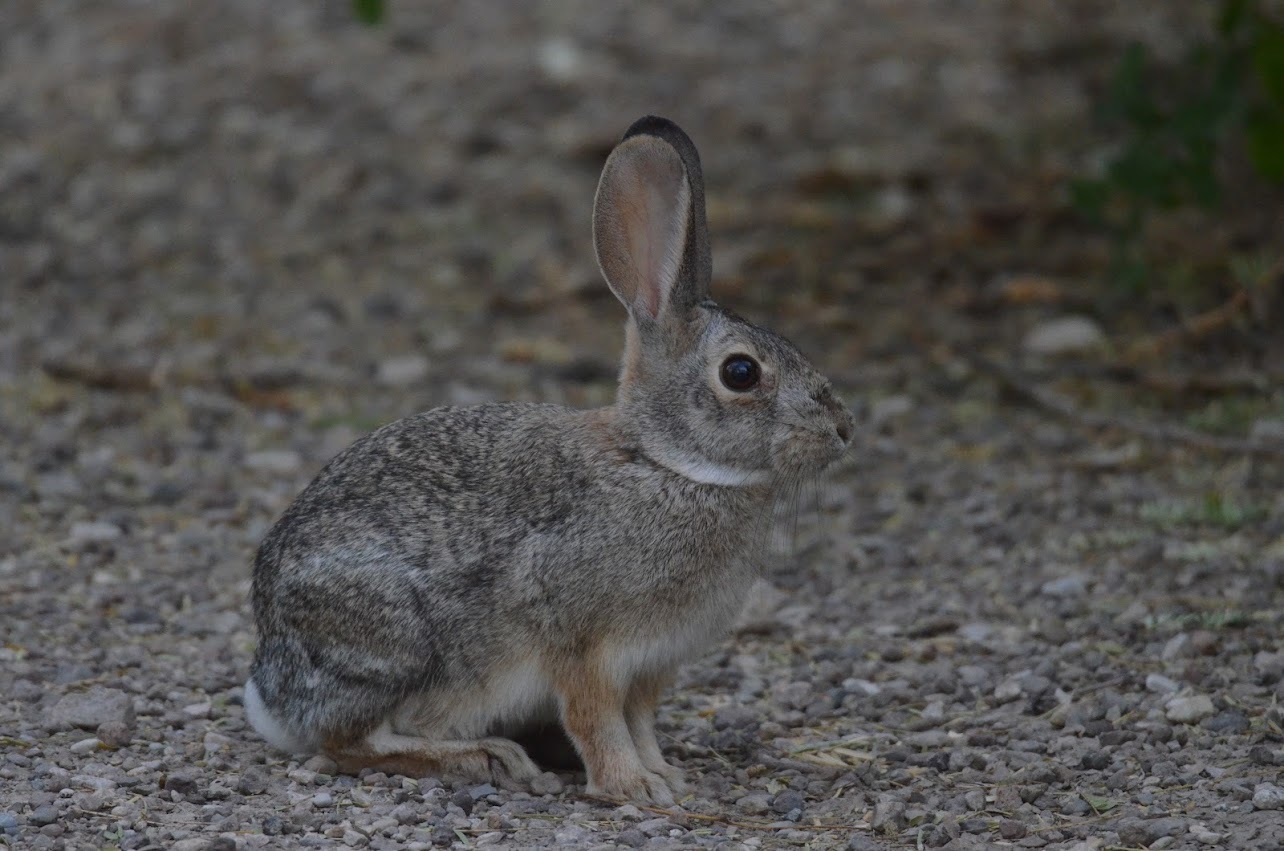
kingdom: Animalia
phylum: Chordata
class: Mammalia
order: Lagomorpha
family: Leporidae
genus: Sylvilagus
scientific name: Sylvilagus audubonii
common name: Desert cottontail
